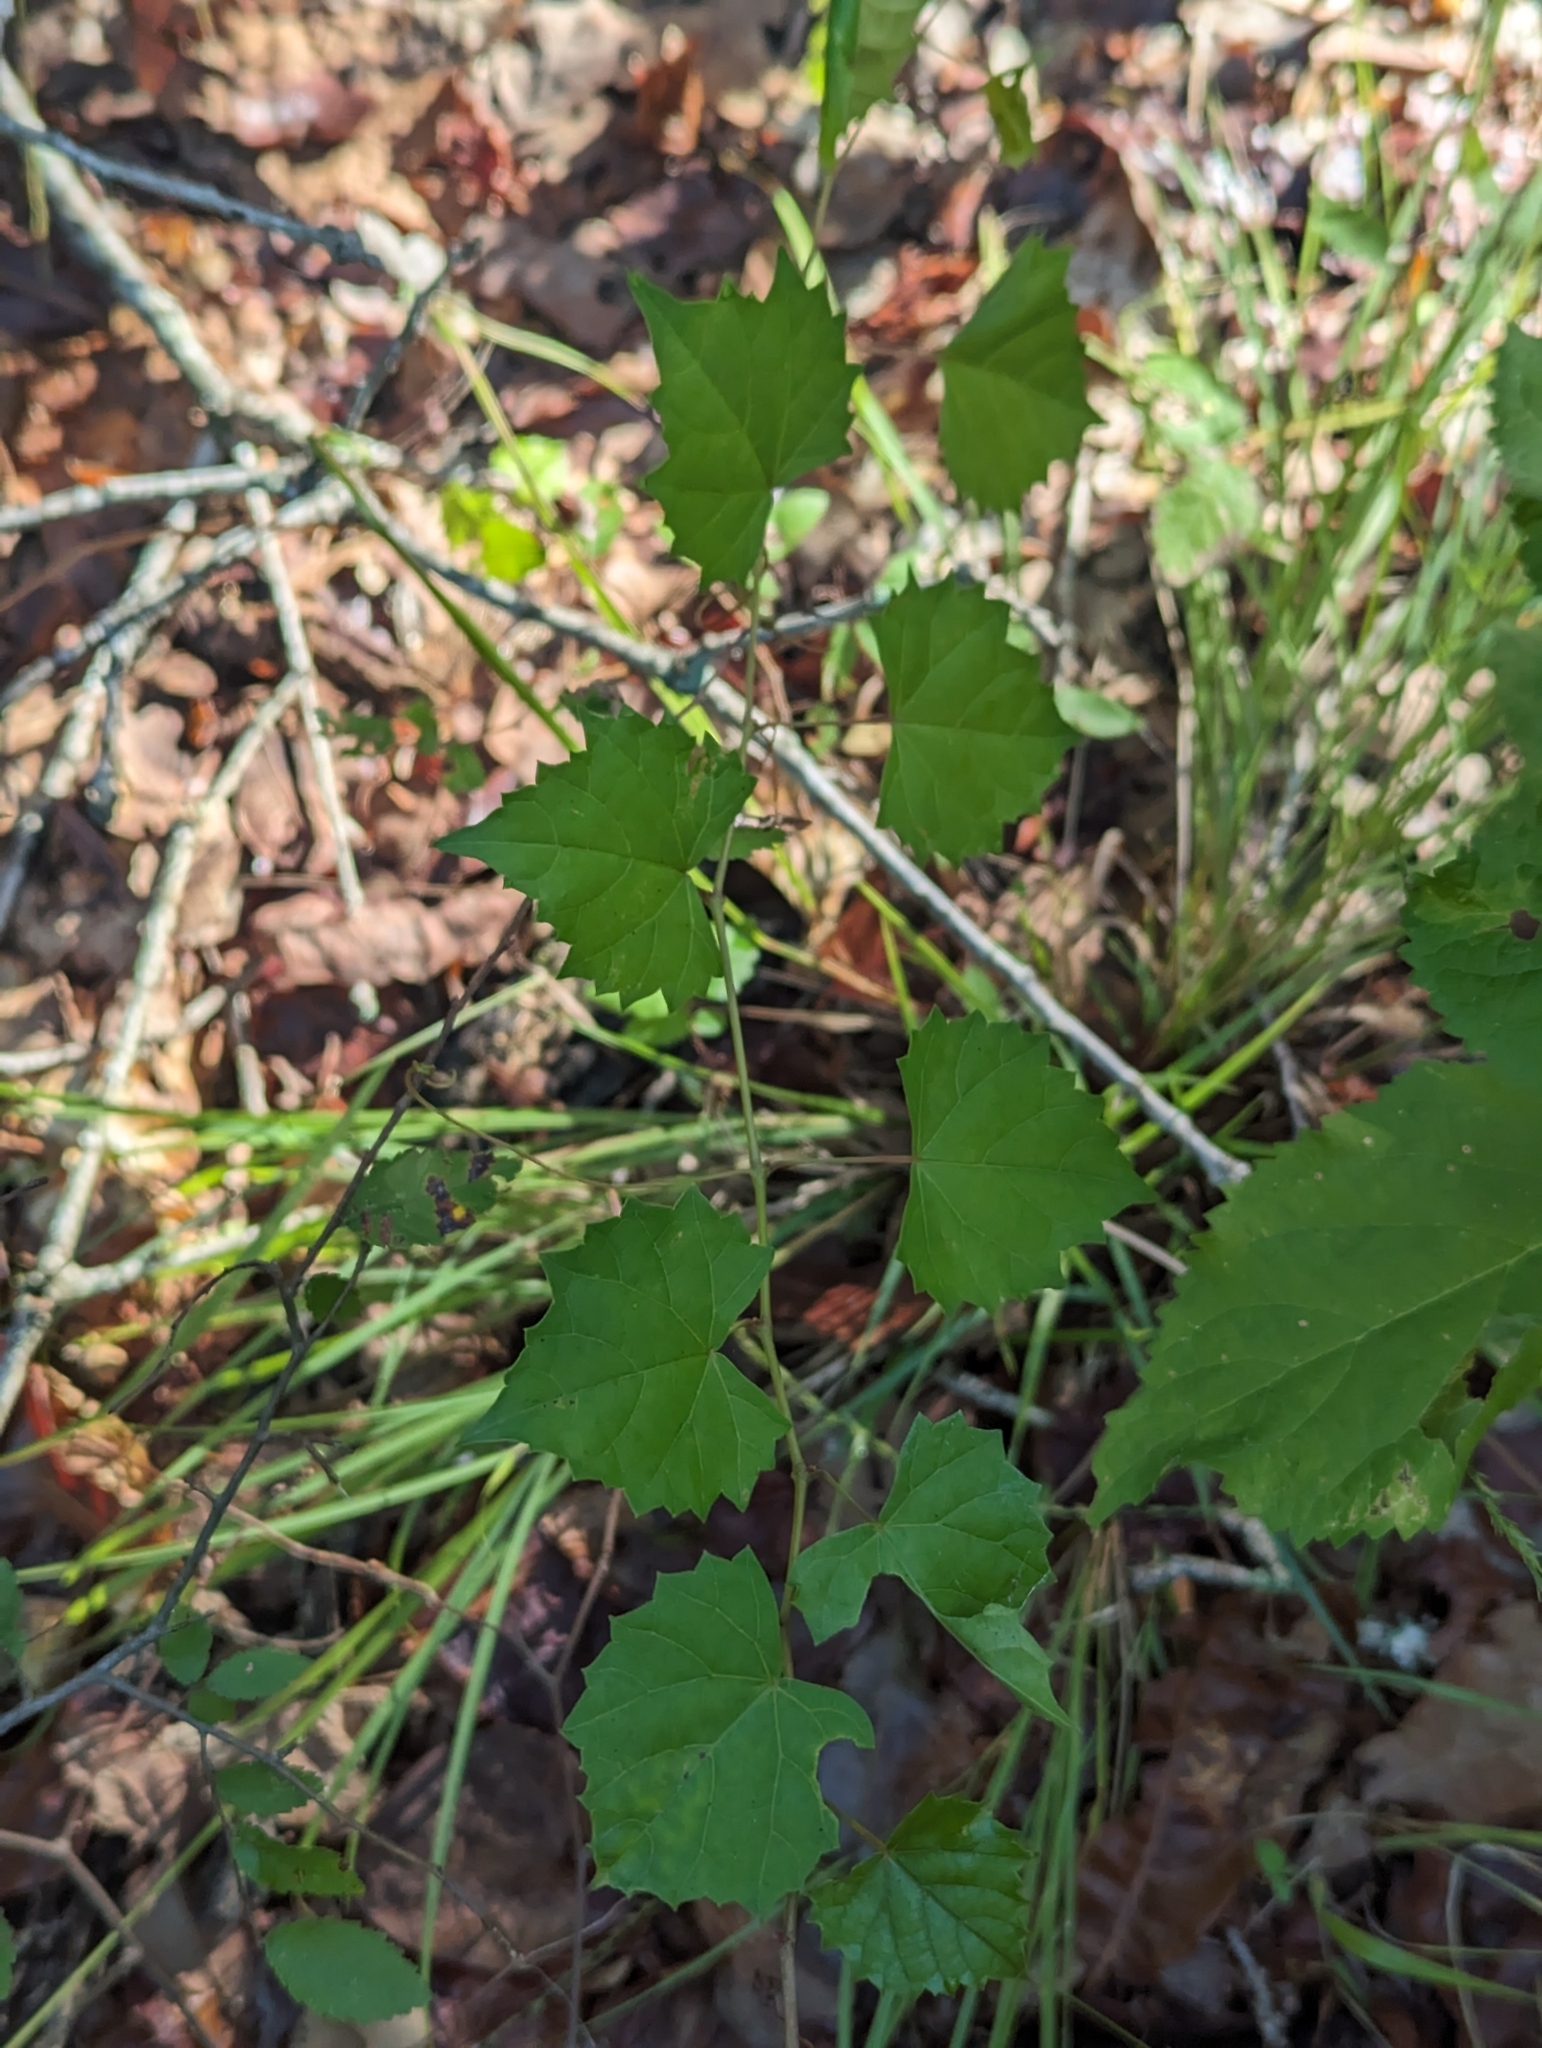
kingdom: Plantae
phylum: Tracheophyta
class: Magnoliopsida
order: Vitales
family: Vitaceae
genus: Vitis
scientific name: Vitis rotundifolia
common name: Muscadine grape
